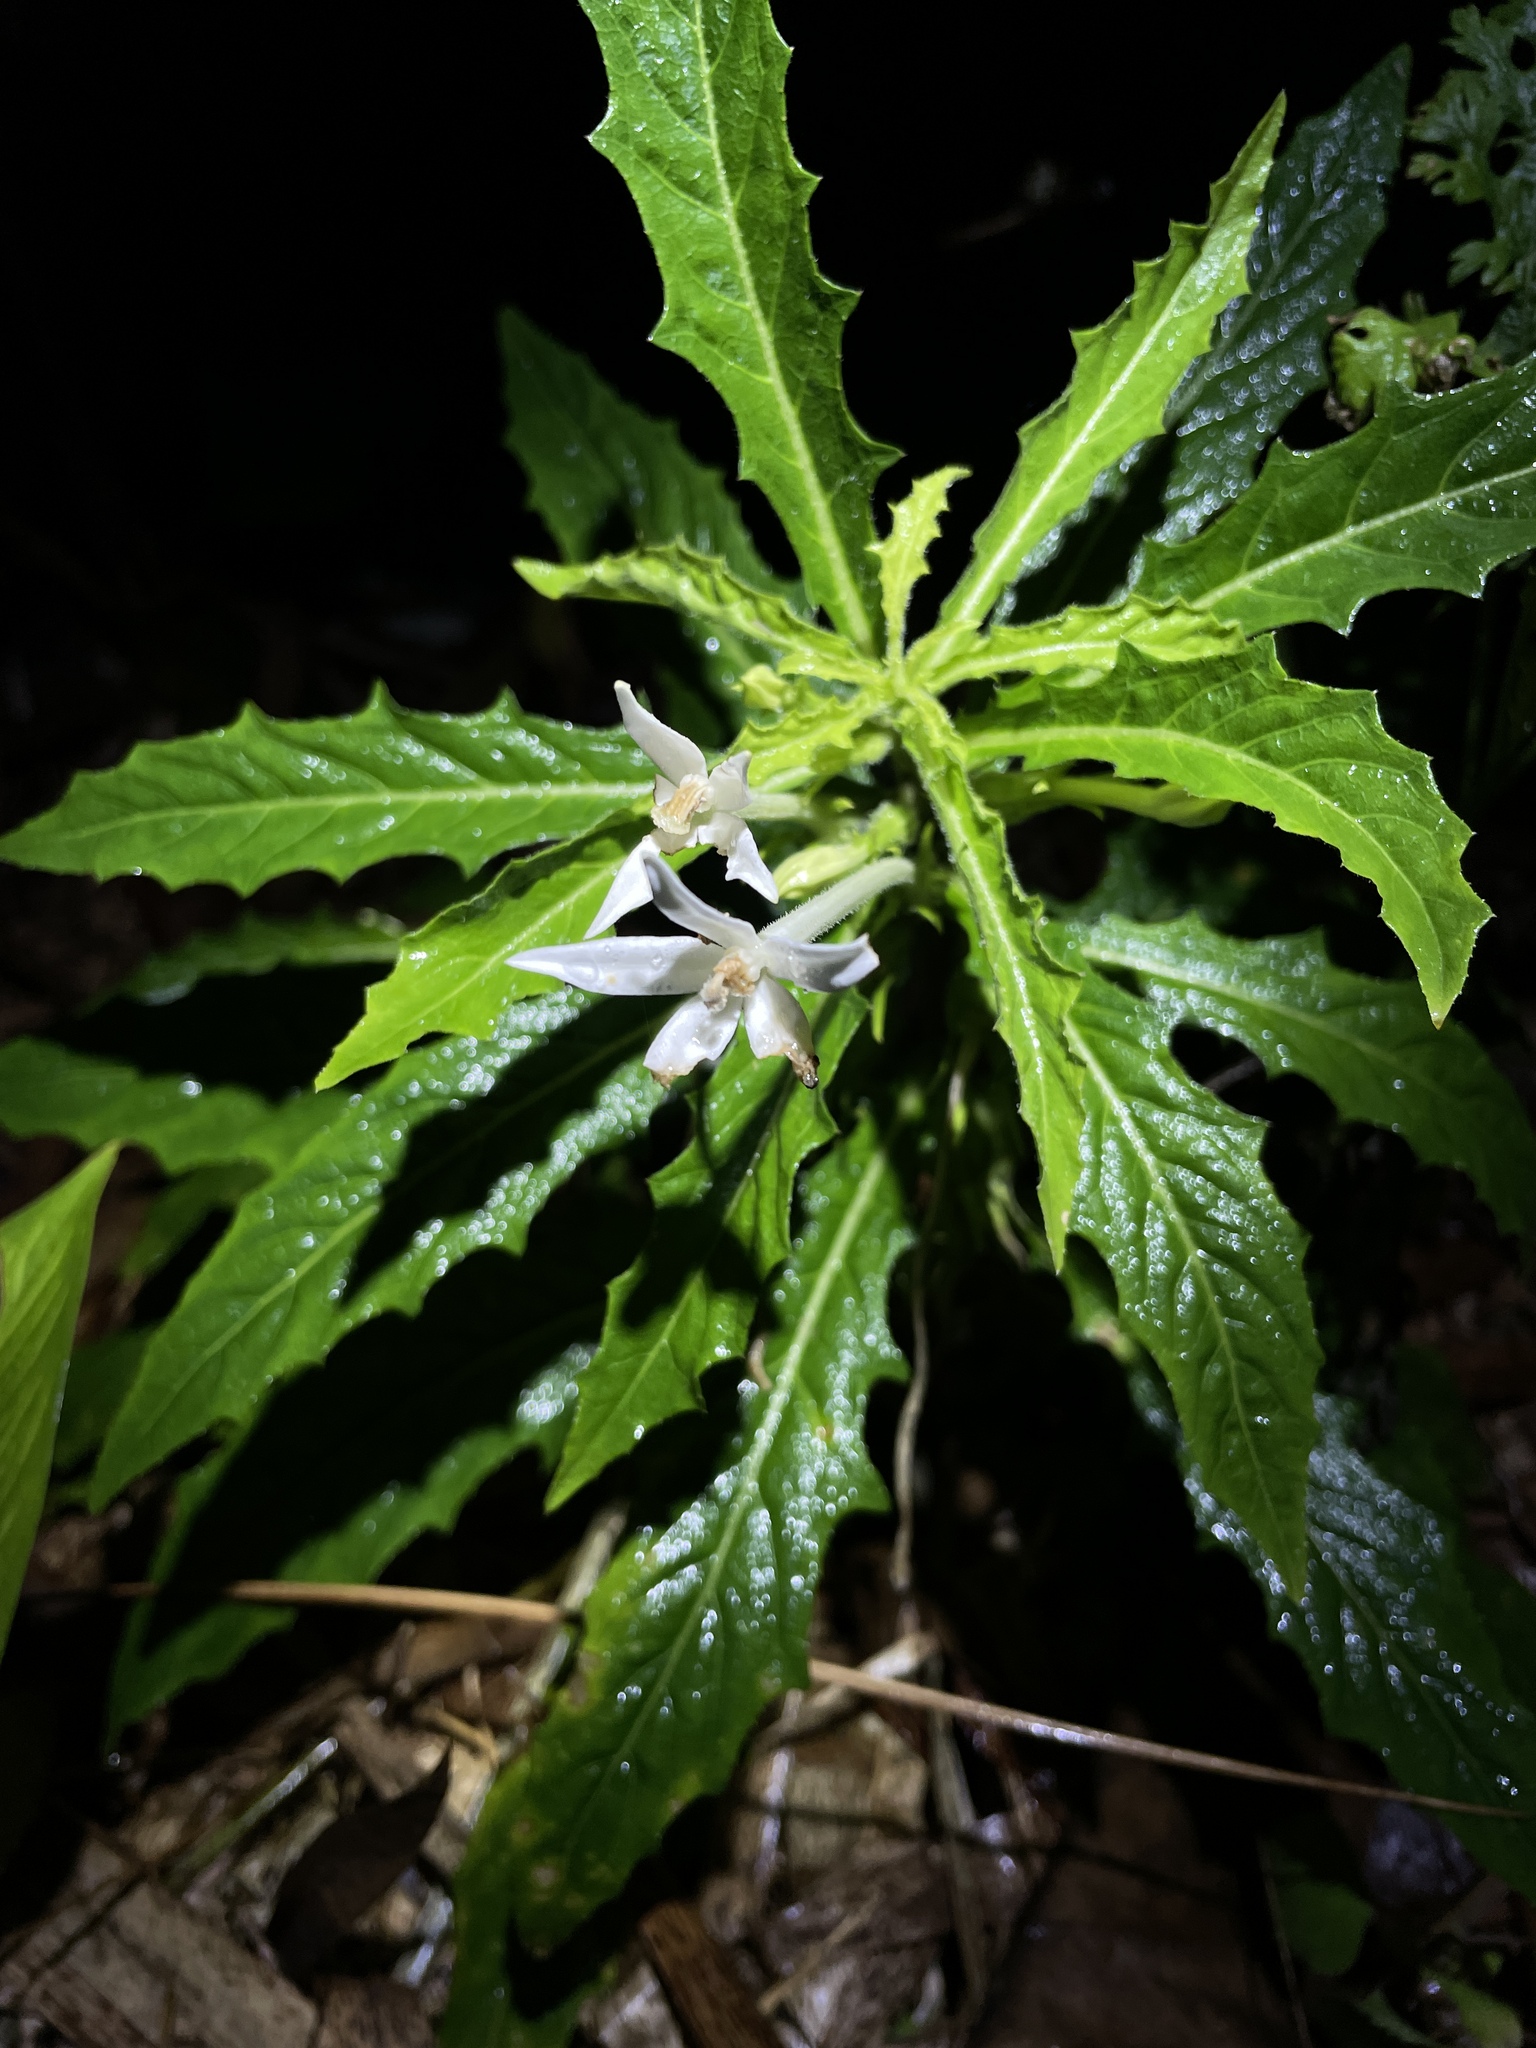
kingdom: Plantae
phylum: Tracheophyta
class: Magnoliopsida
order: Asterales
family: Campanulaceae
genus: Hippobroma
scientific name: Hippobroma longiflora
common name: Madamfate
